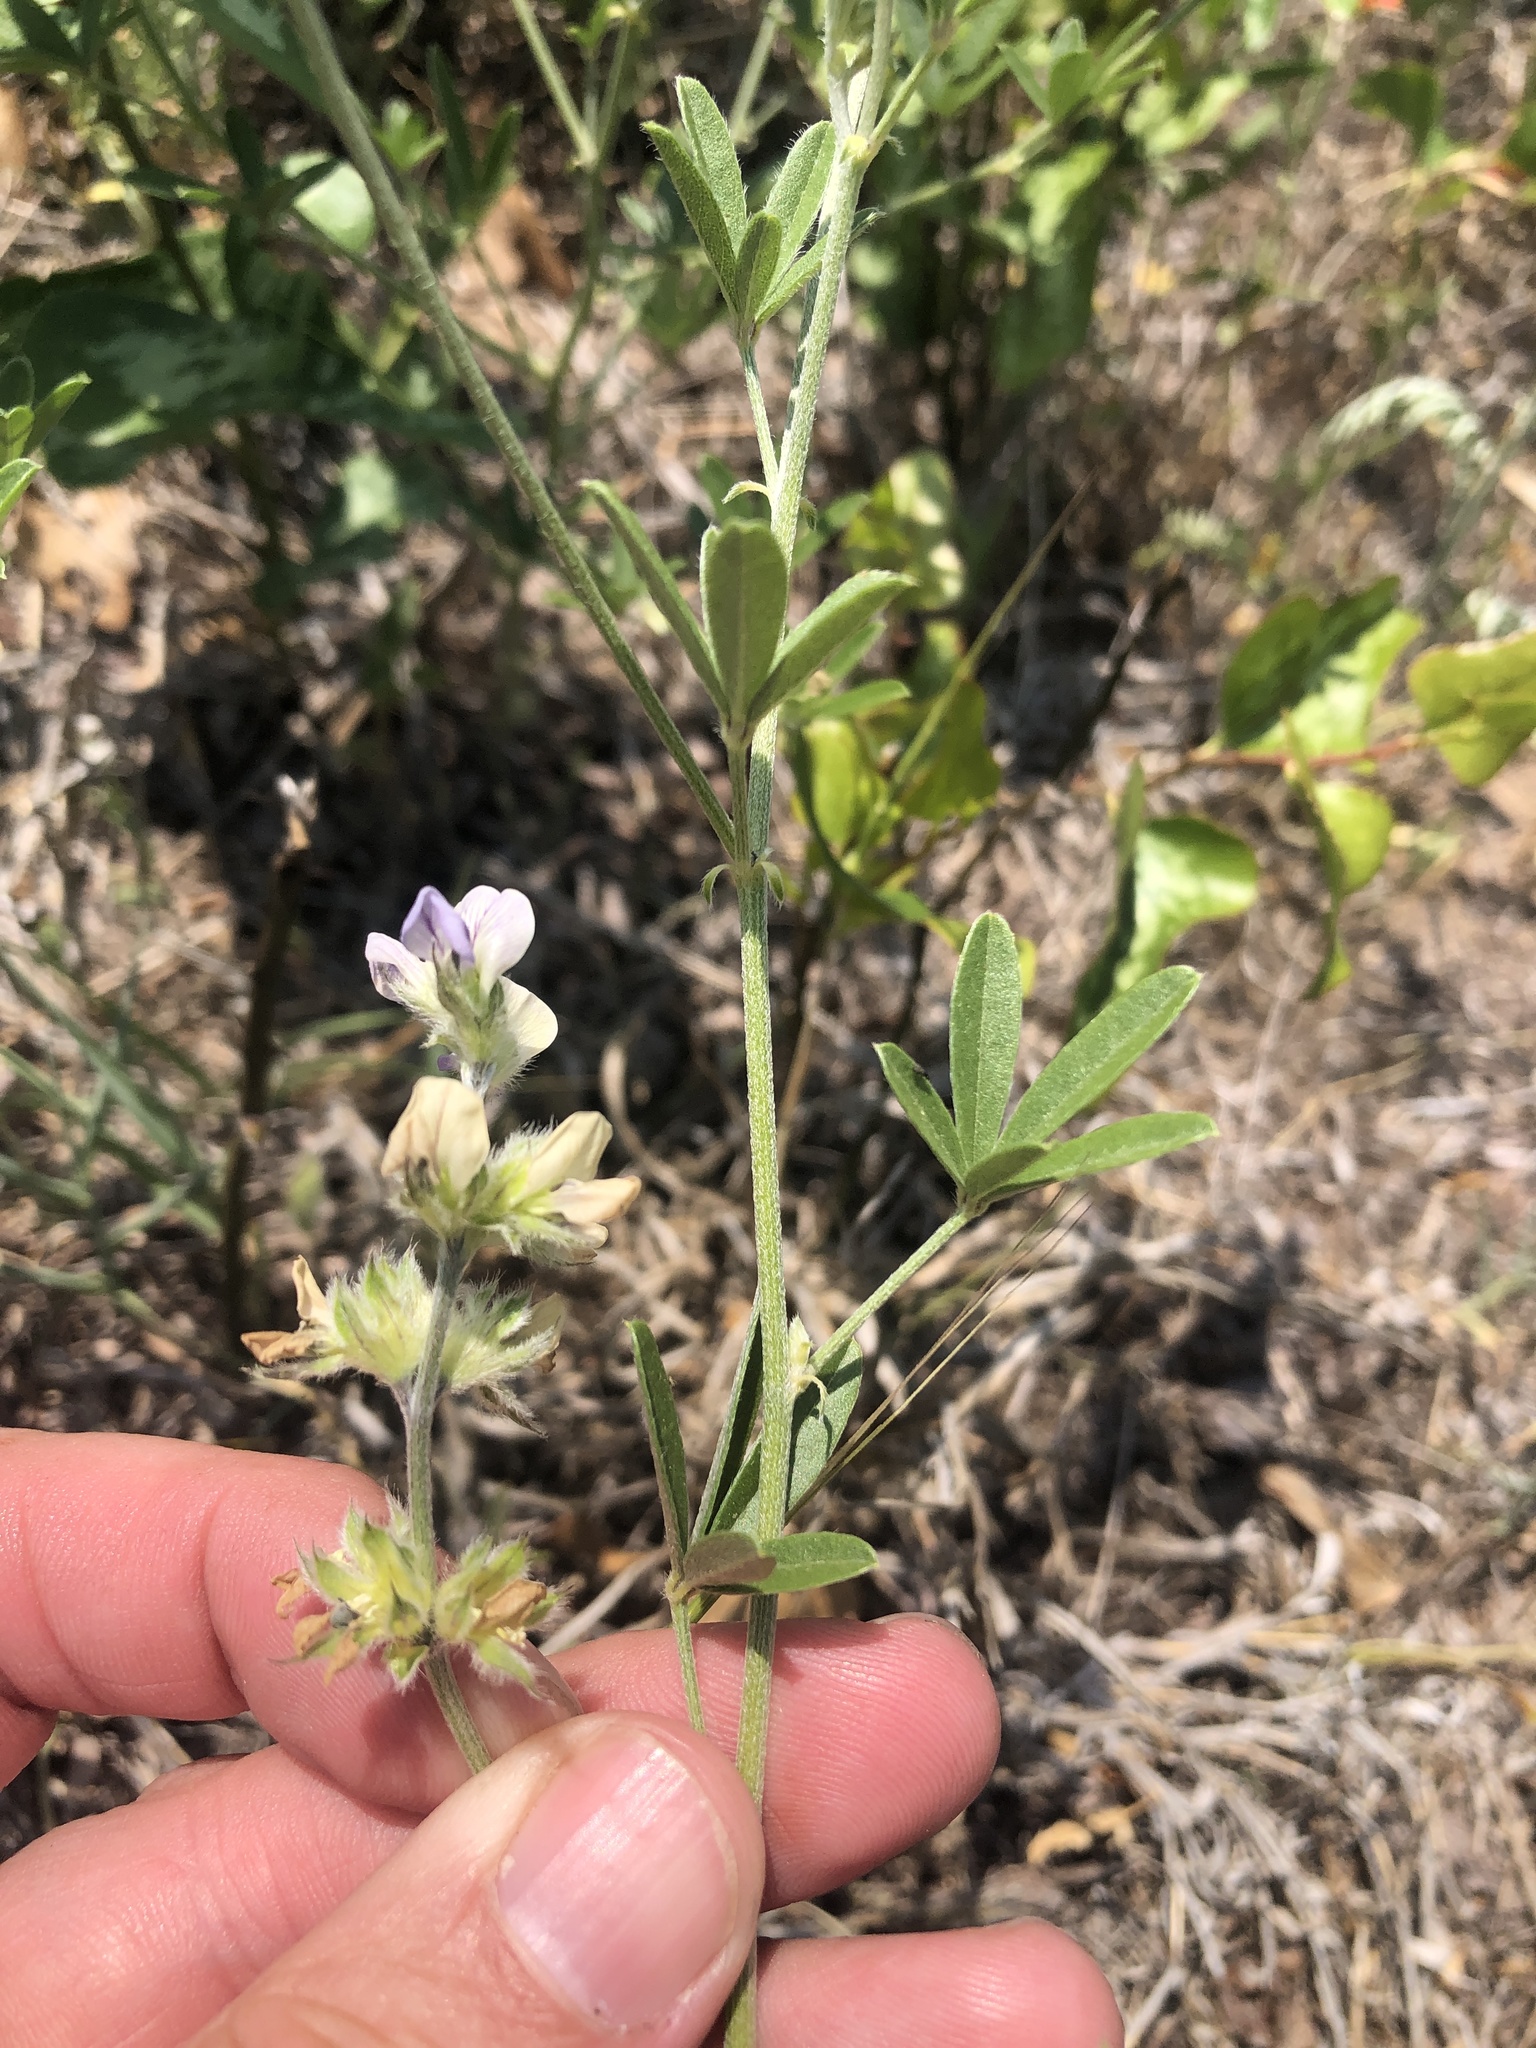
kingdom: Plantae
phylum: Tracheophyta
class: Magnoliopsida
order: Fabales
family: Fabaceae
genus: Pediomelum
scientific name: Pediomelum digitatum
